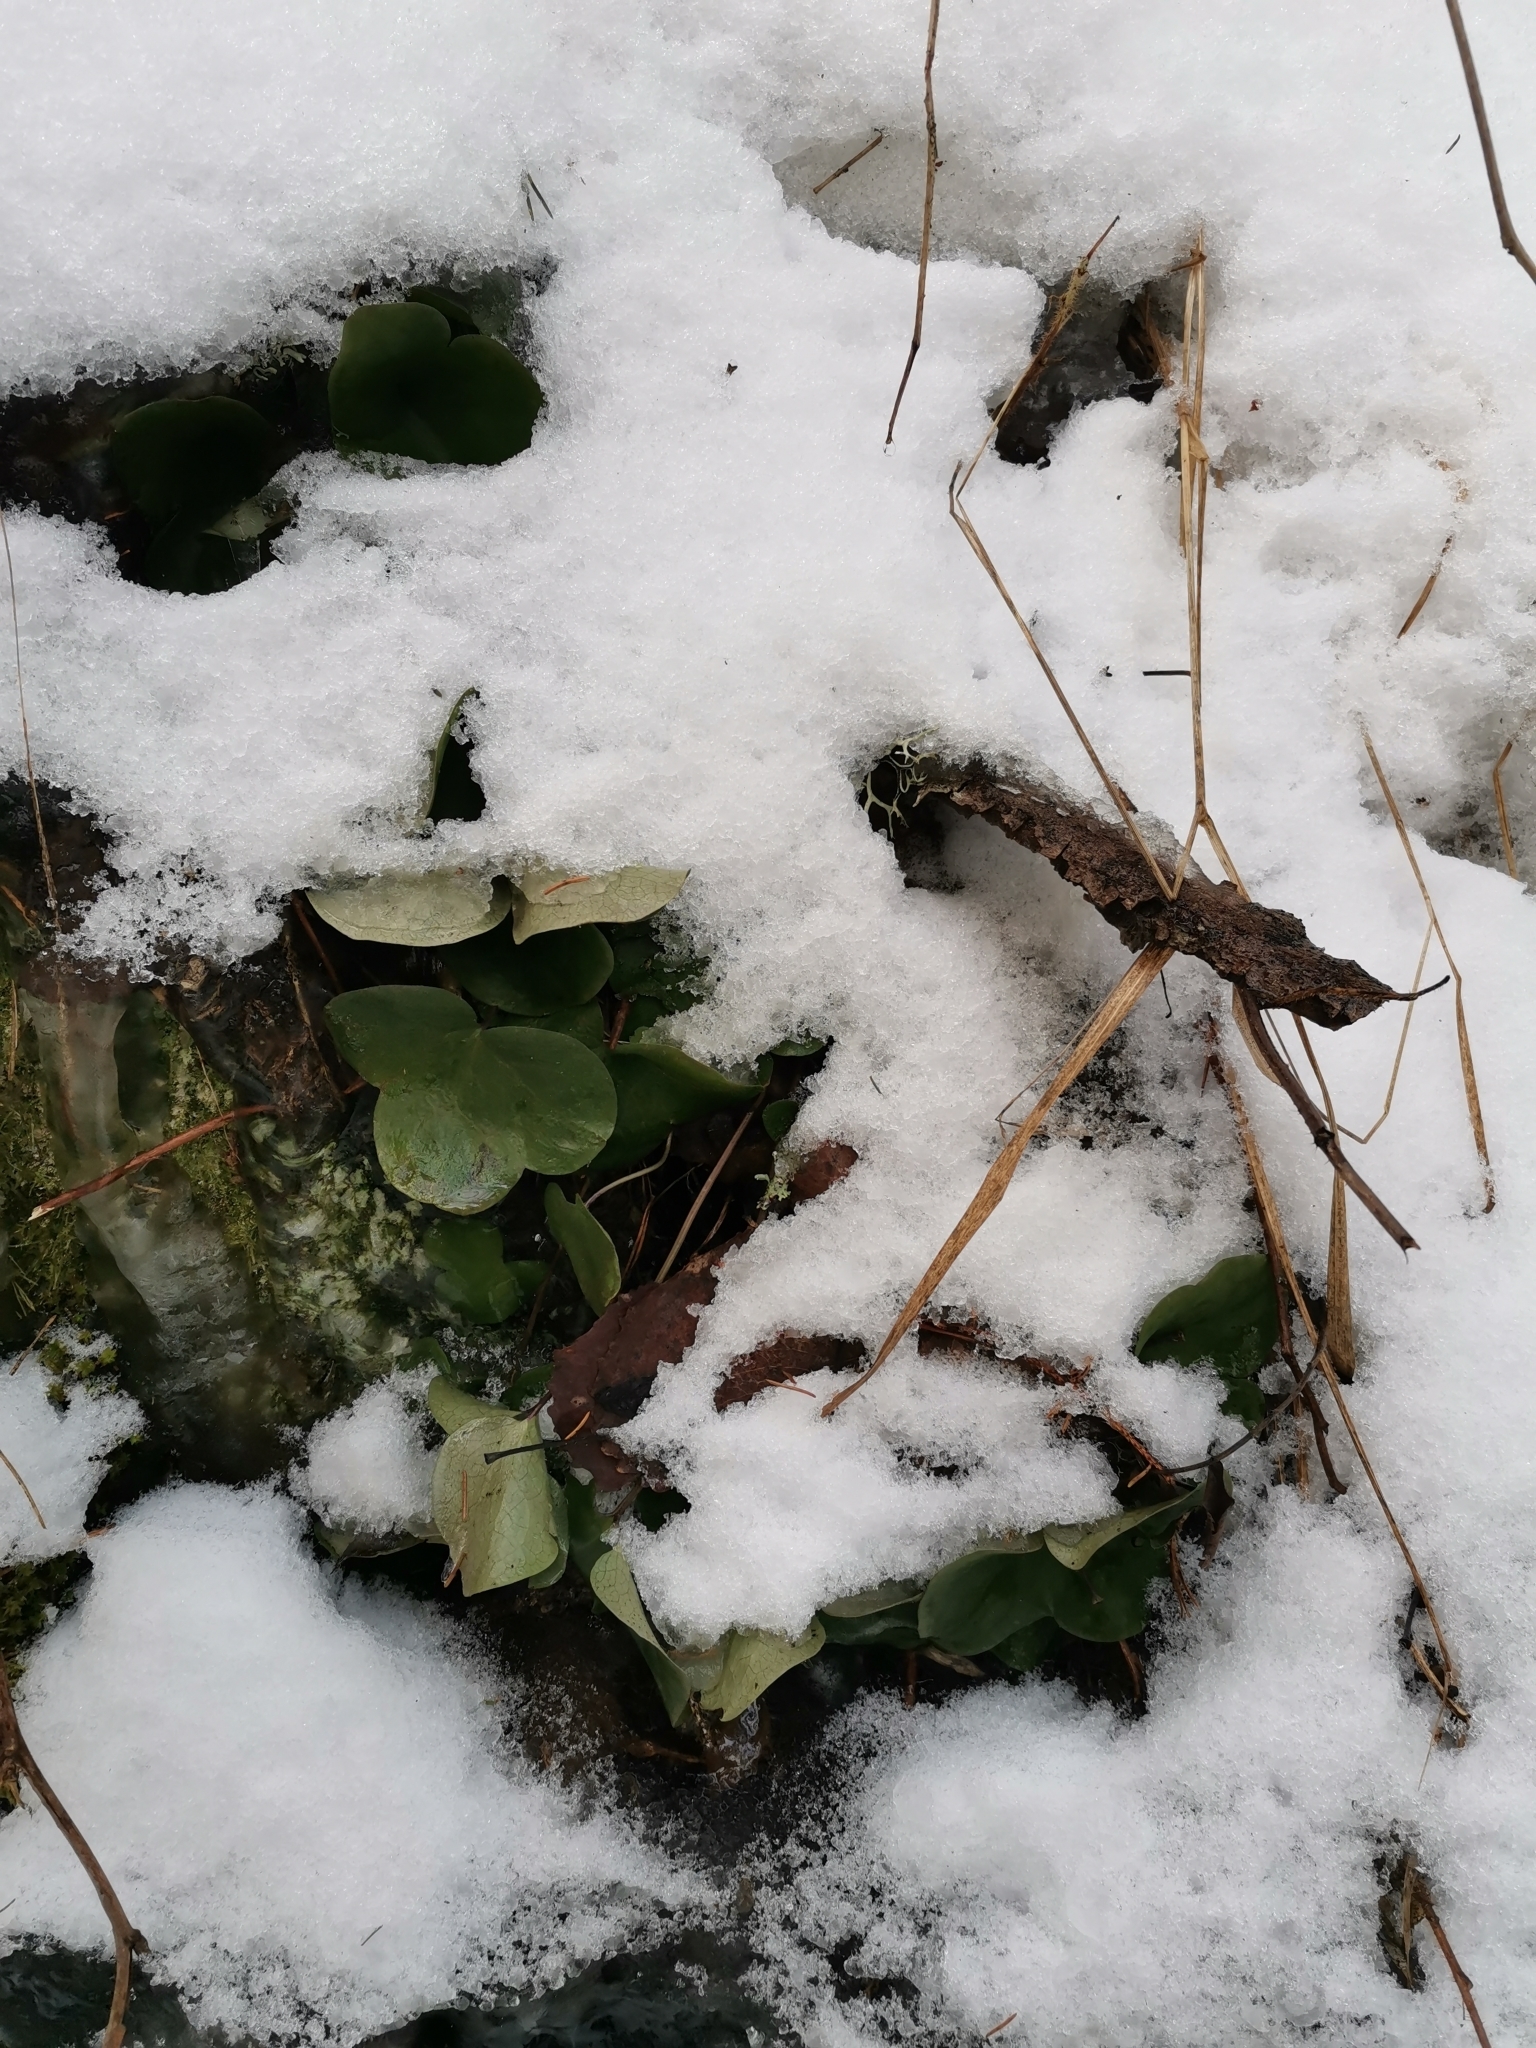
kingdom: Plantae
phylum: Tracheophyta
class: Magnoliopsida
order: Ranunculales
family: Ranunculaceae
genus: Hepatica
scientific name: Hepatica nobilis
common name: Liverleaf
